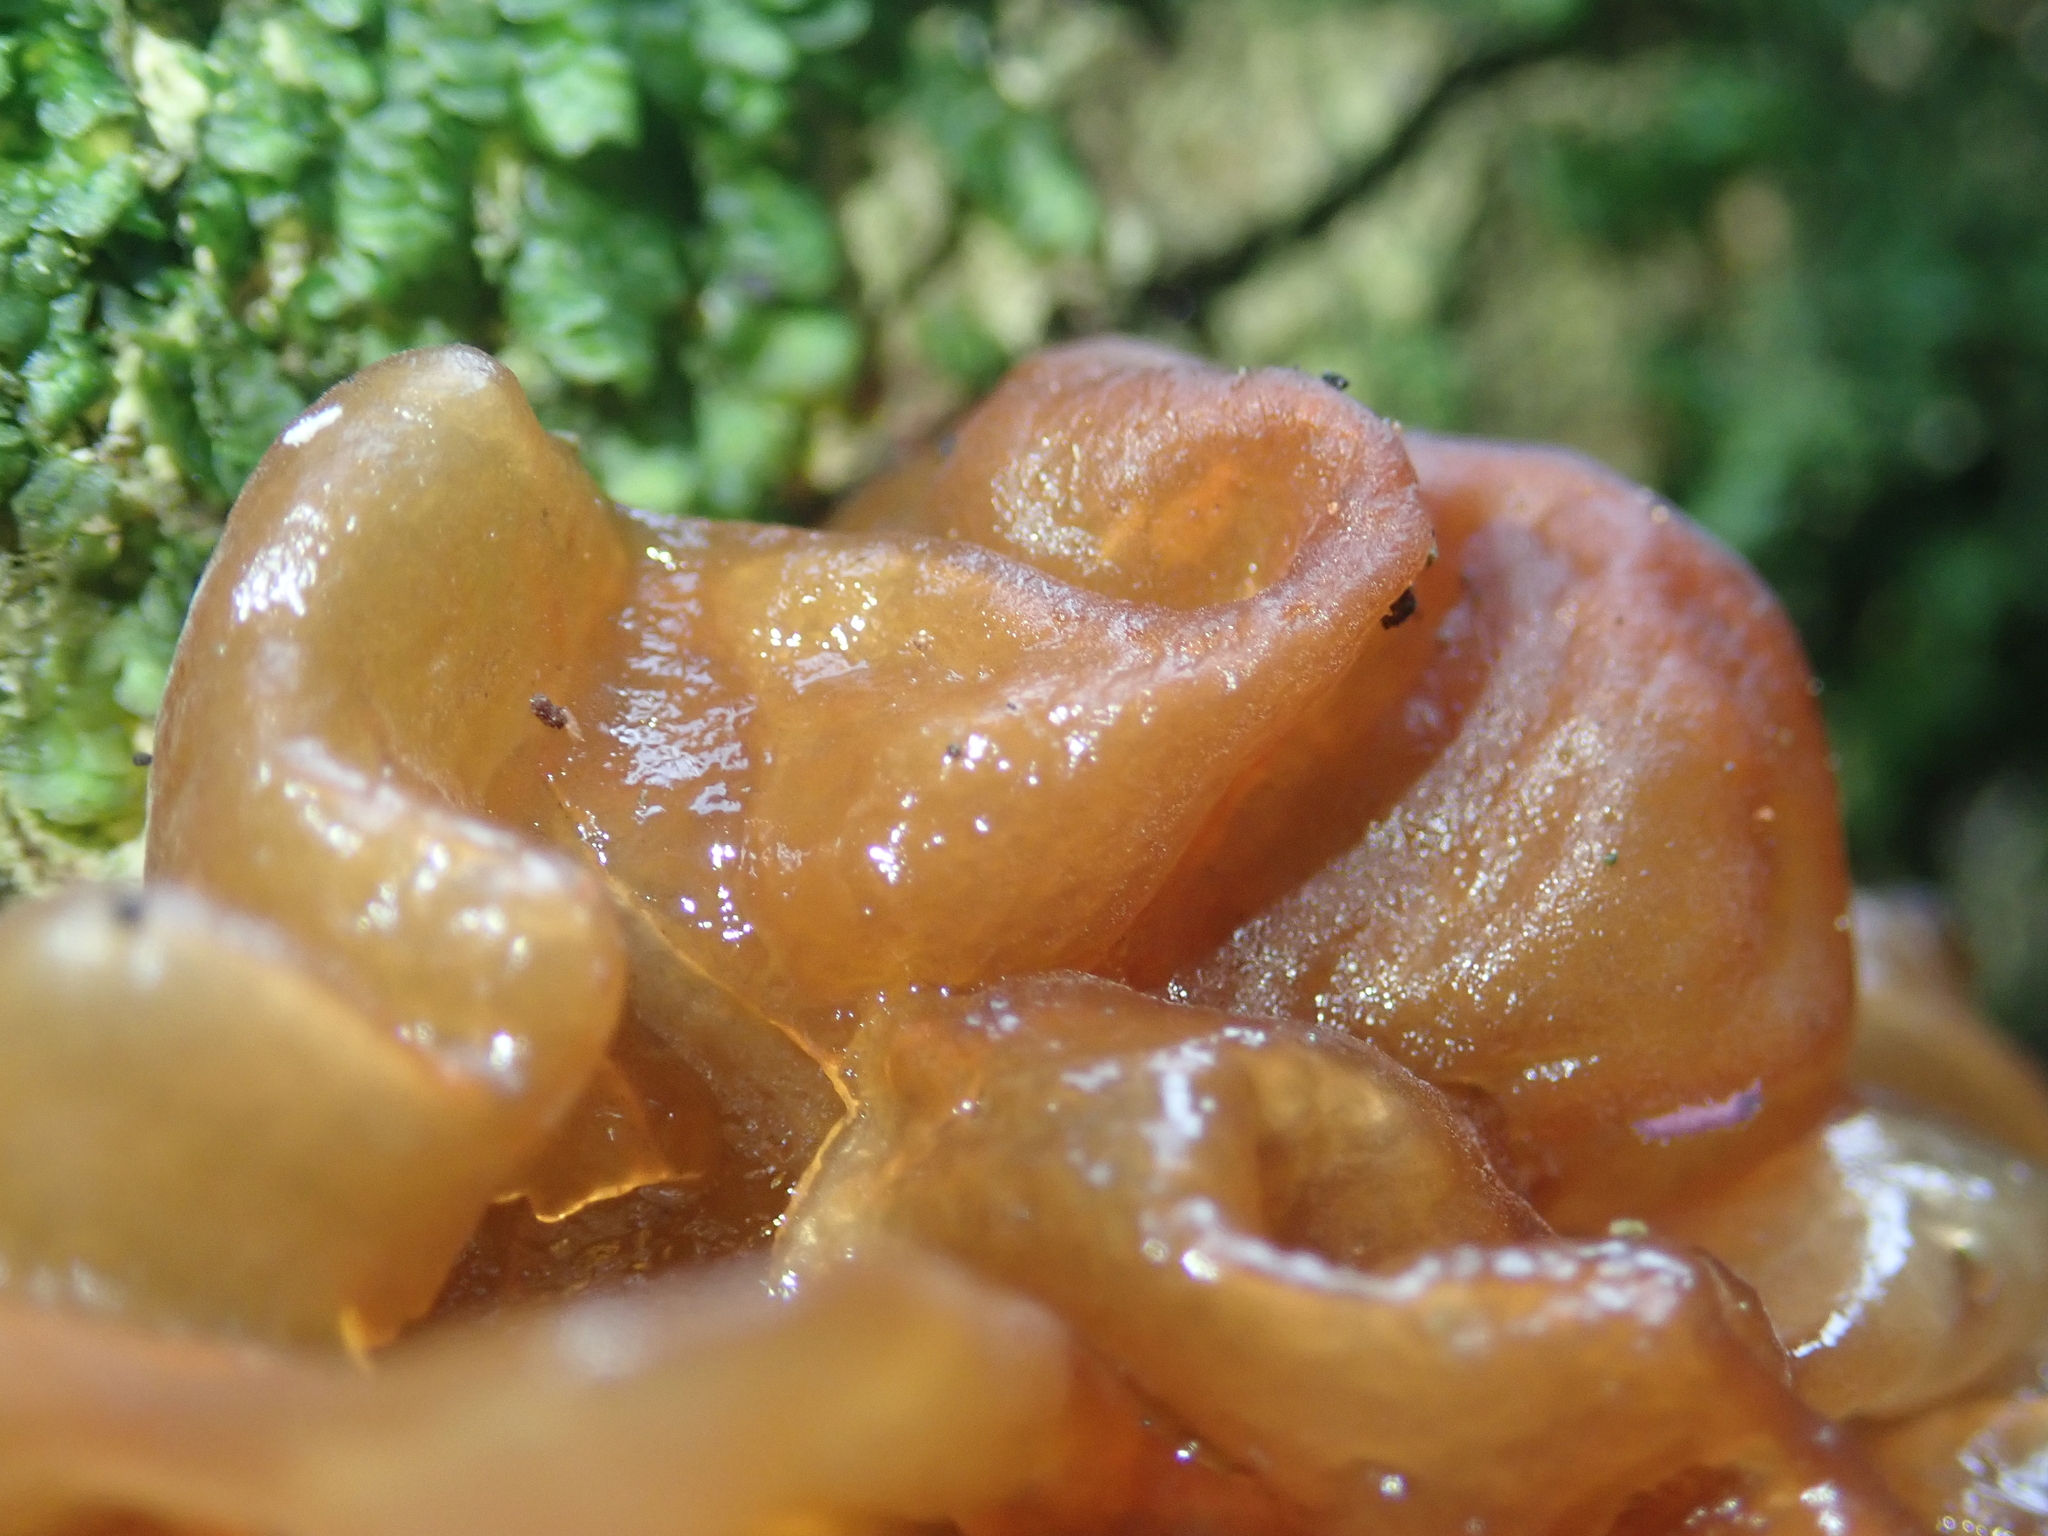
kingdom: Fungi
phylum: Basidiomycota
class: Tremellomycetes
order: Tremellales
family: Tremellaceae
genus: Tremella
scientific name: Tremella vesiculosa
